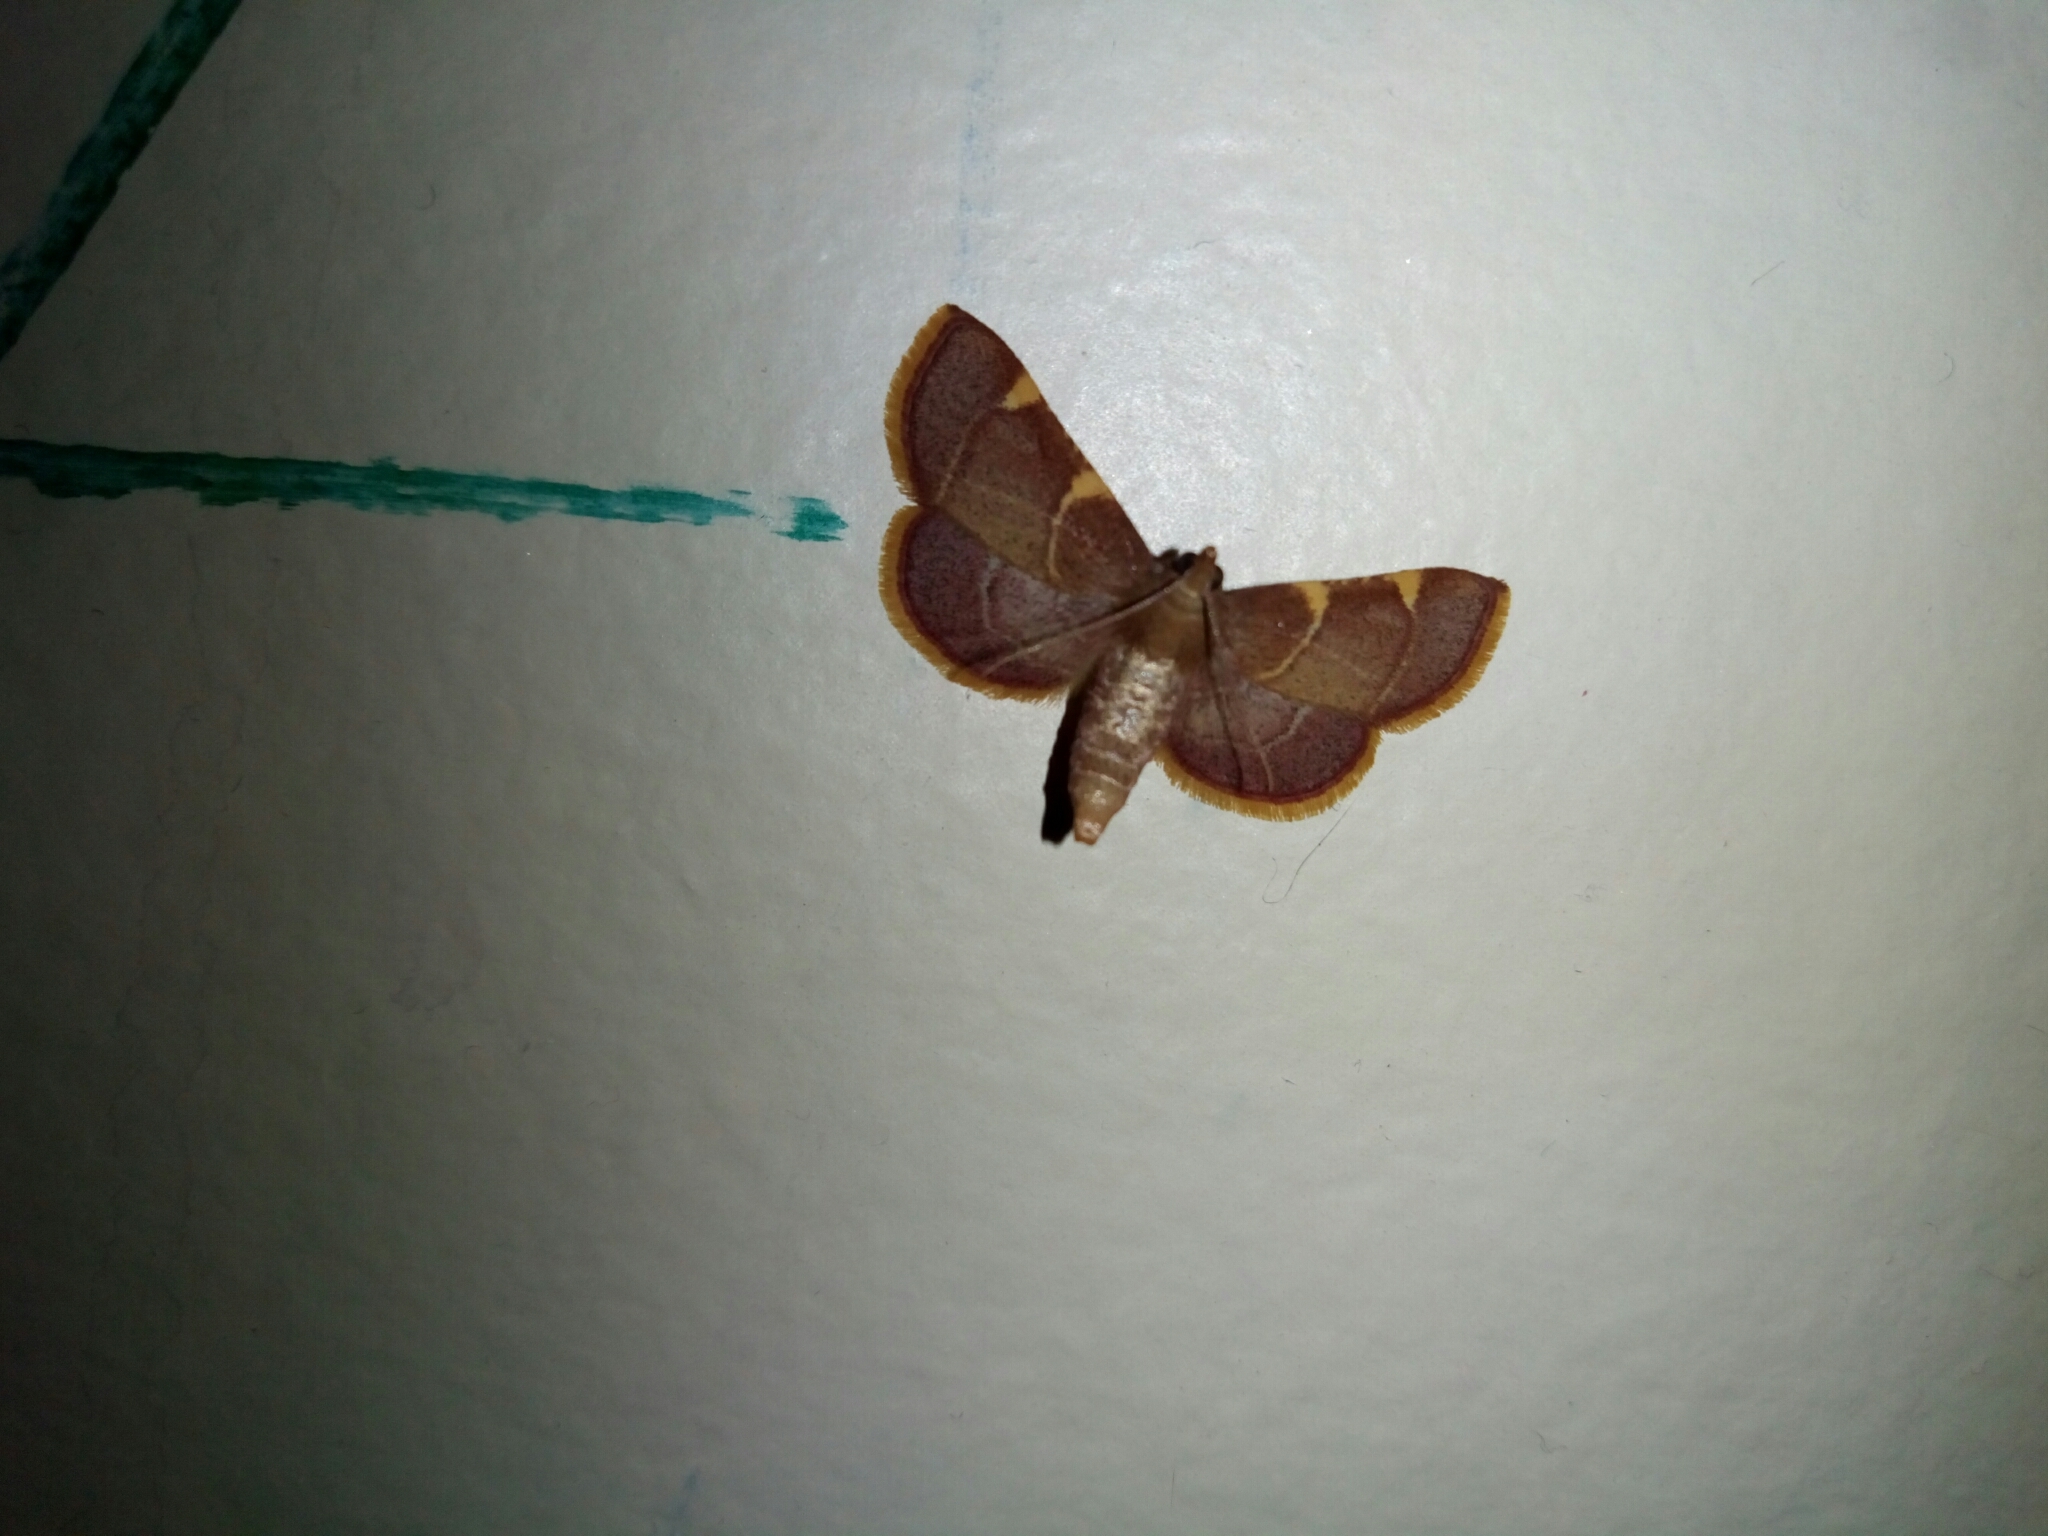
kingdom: Animalia
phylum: Arthropoda
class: Insecta
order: Lepidoptera
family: Pyralidae
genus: Hypsopygia
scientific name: Hypsopygia olinalis
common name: Yellow-fringed dolichomia moth
